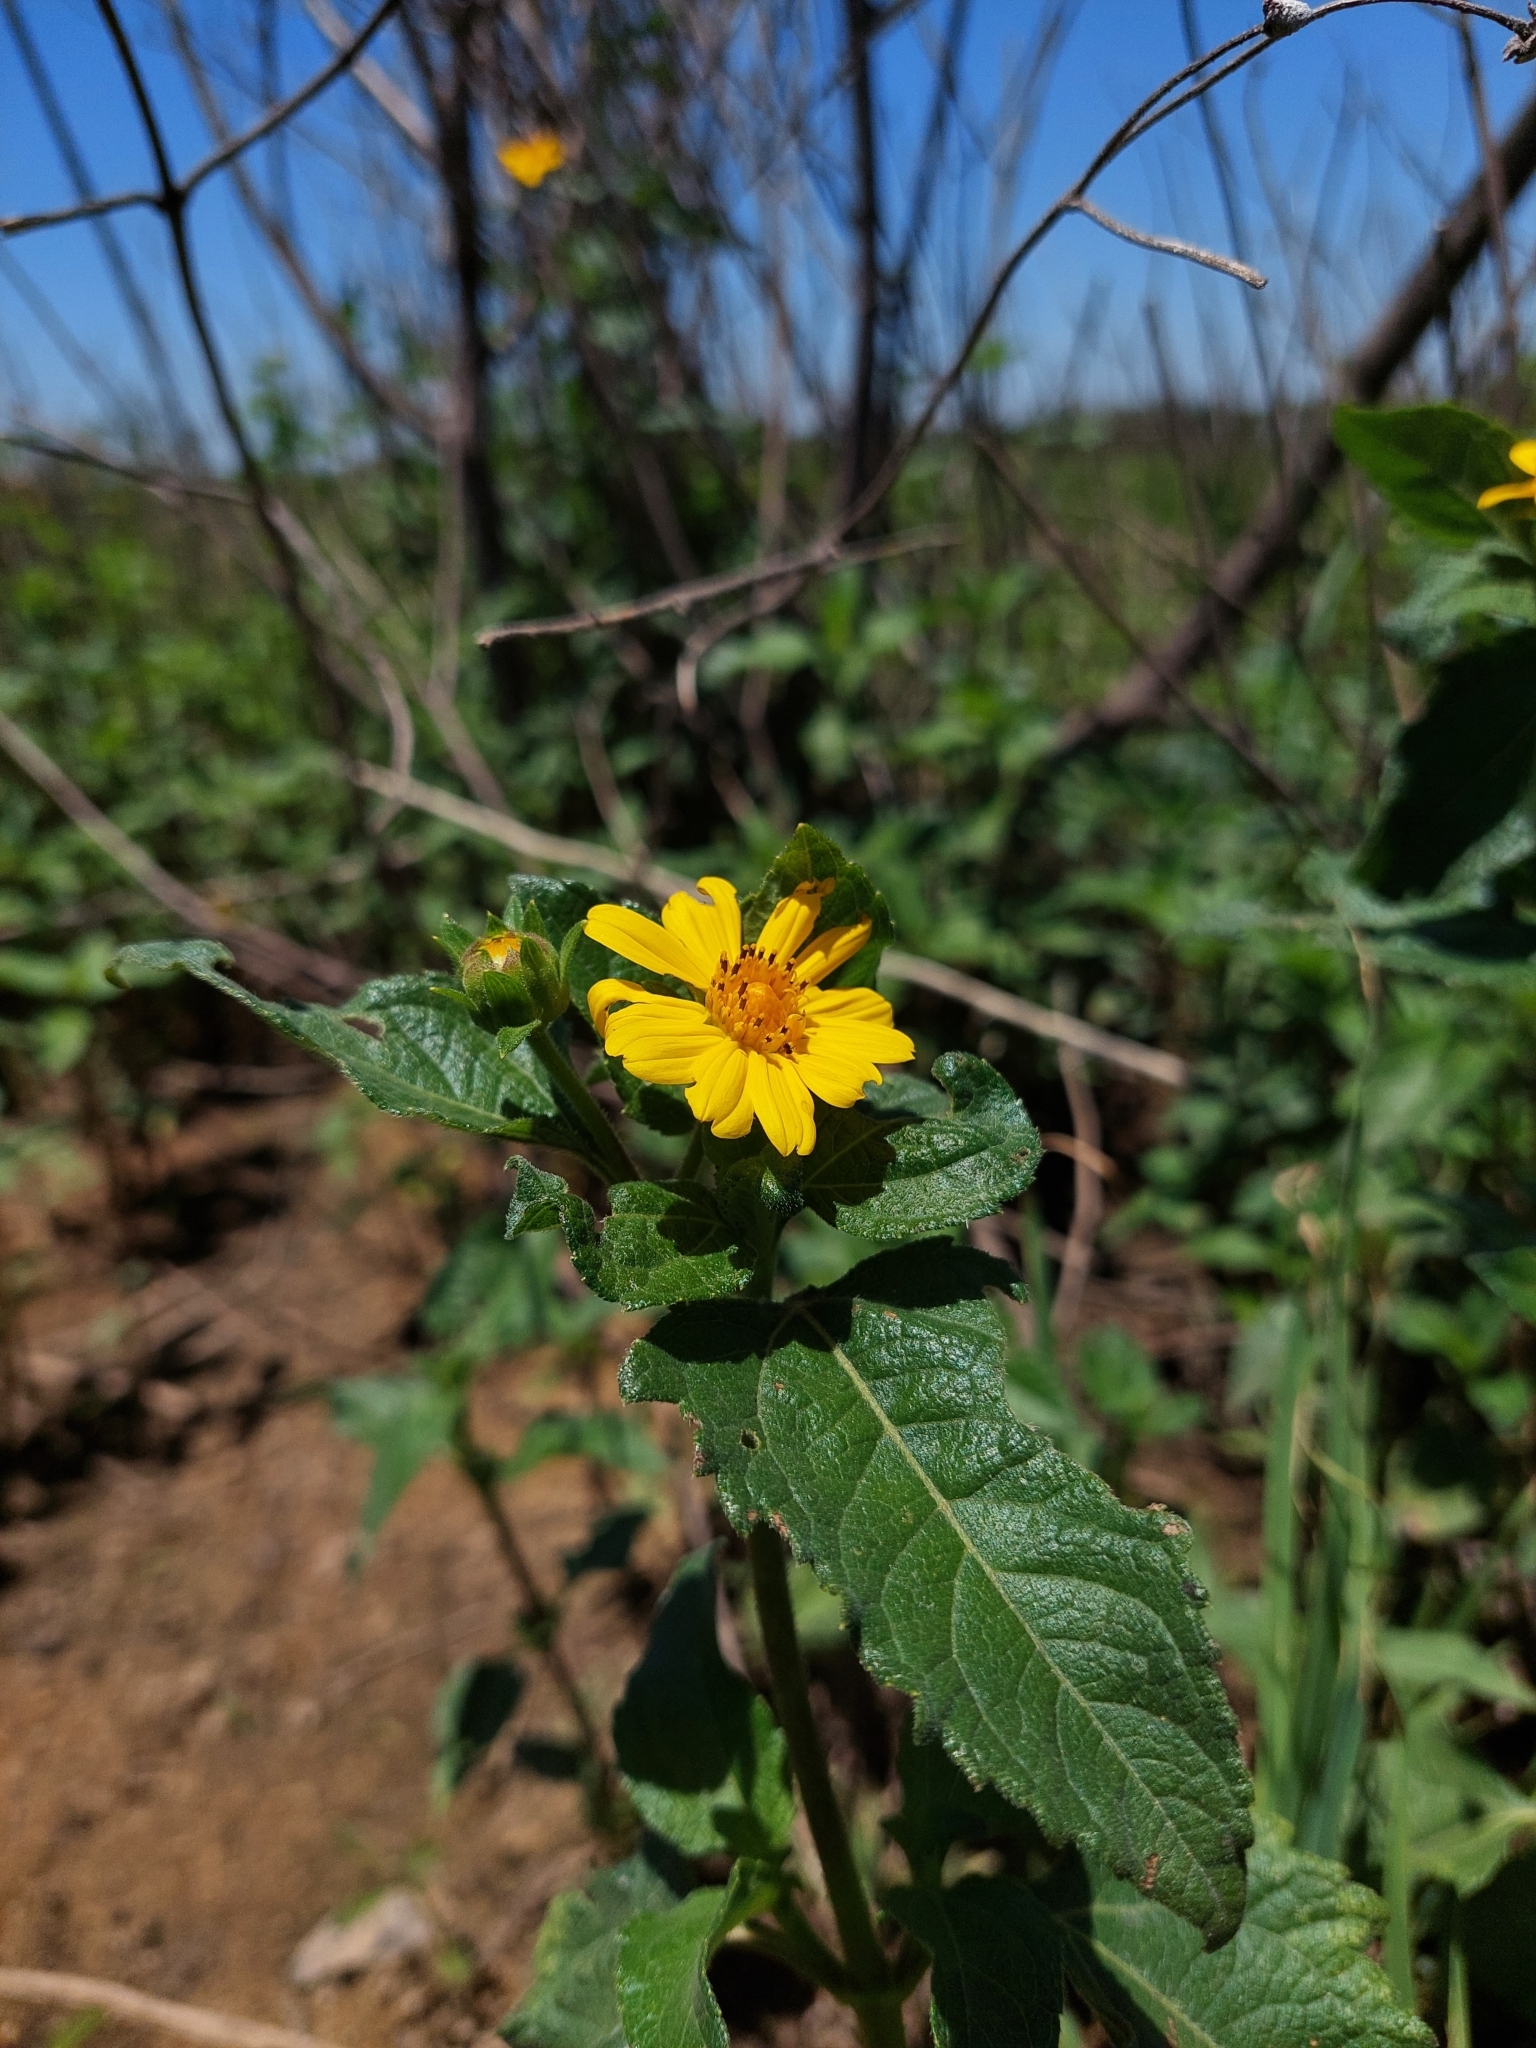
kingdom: Plantae
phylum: Tracheophyta
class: Magnoliopsida
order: Asterales
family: Asteraceae
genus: Wedelia
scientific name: Wedelia silphioides
